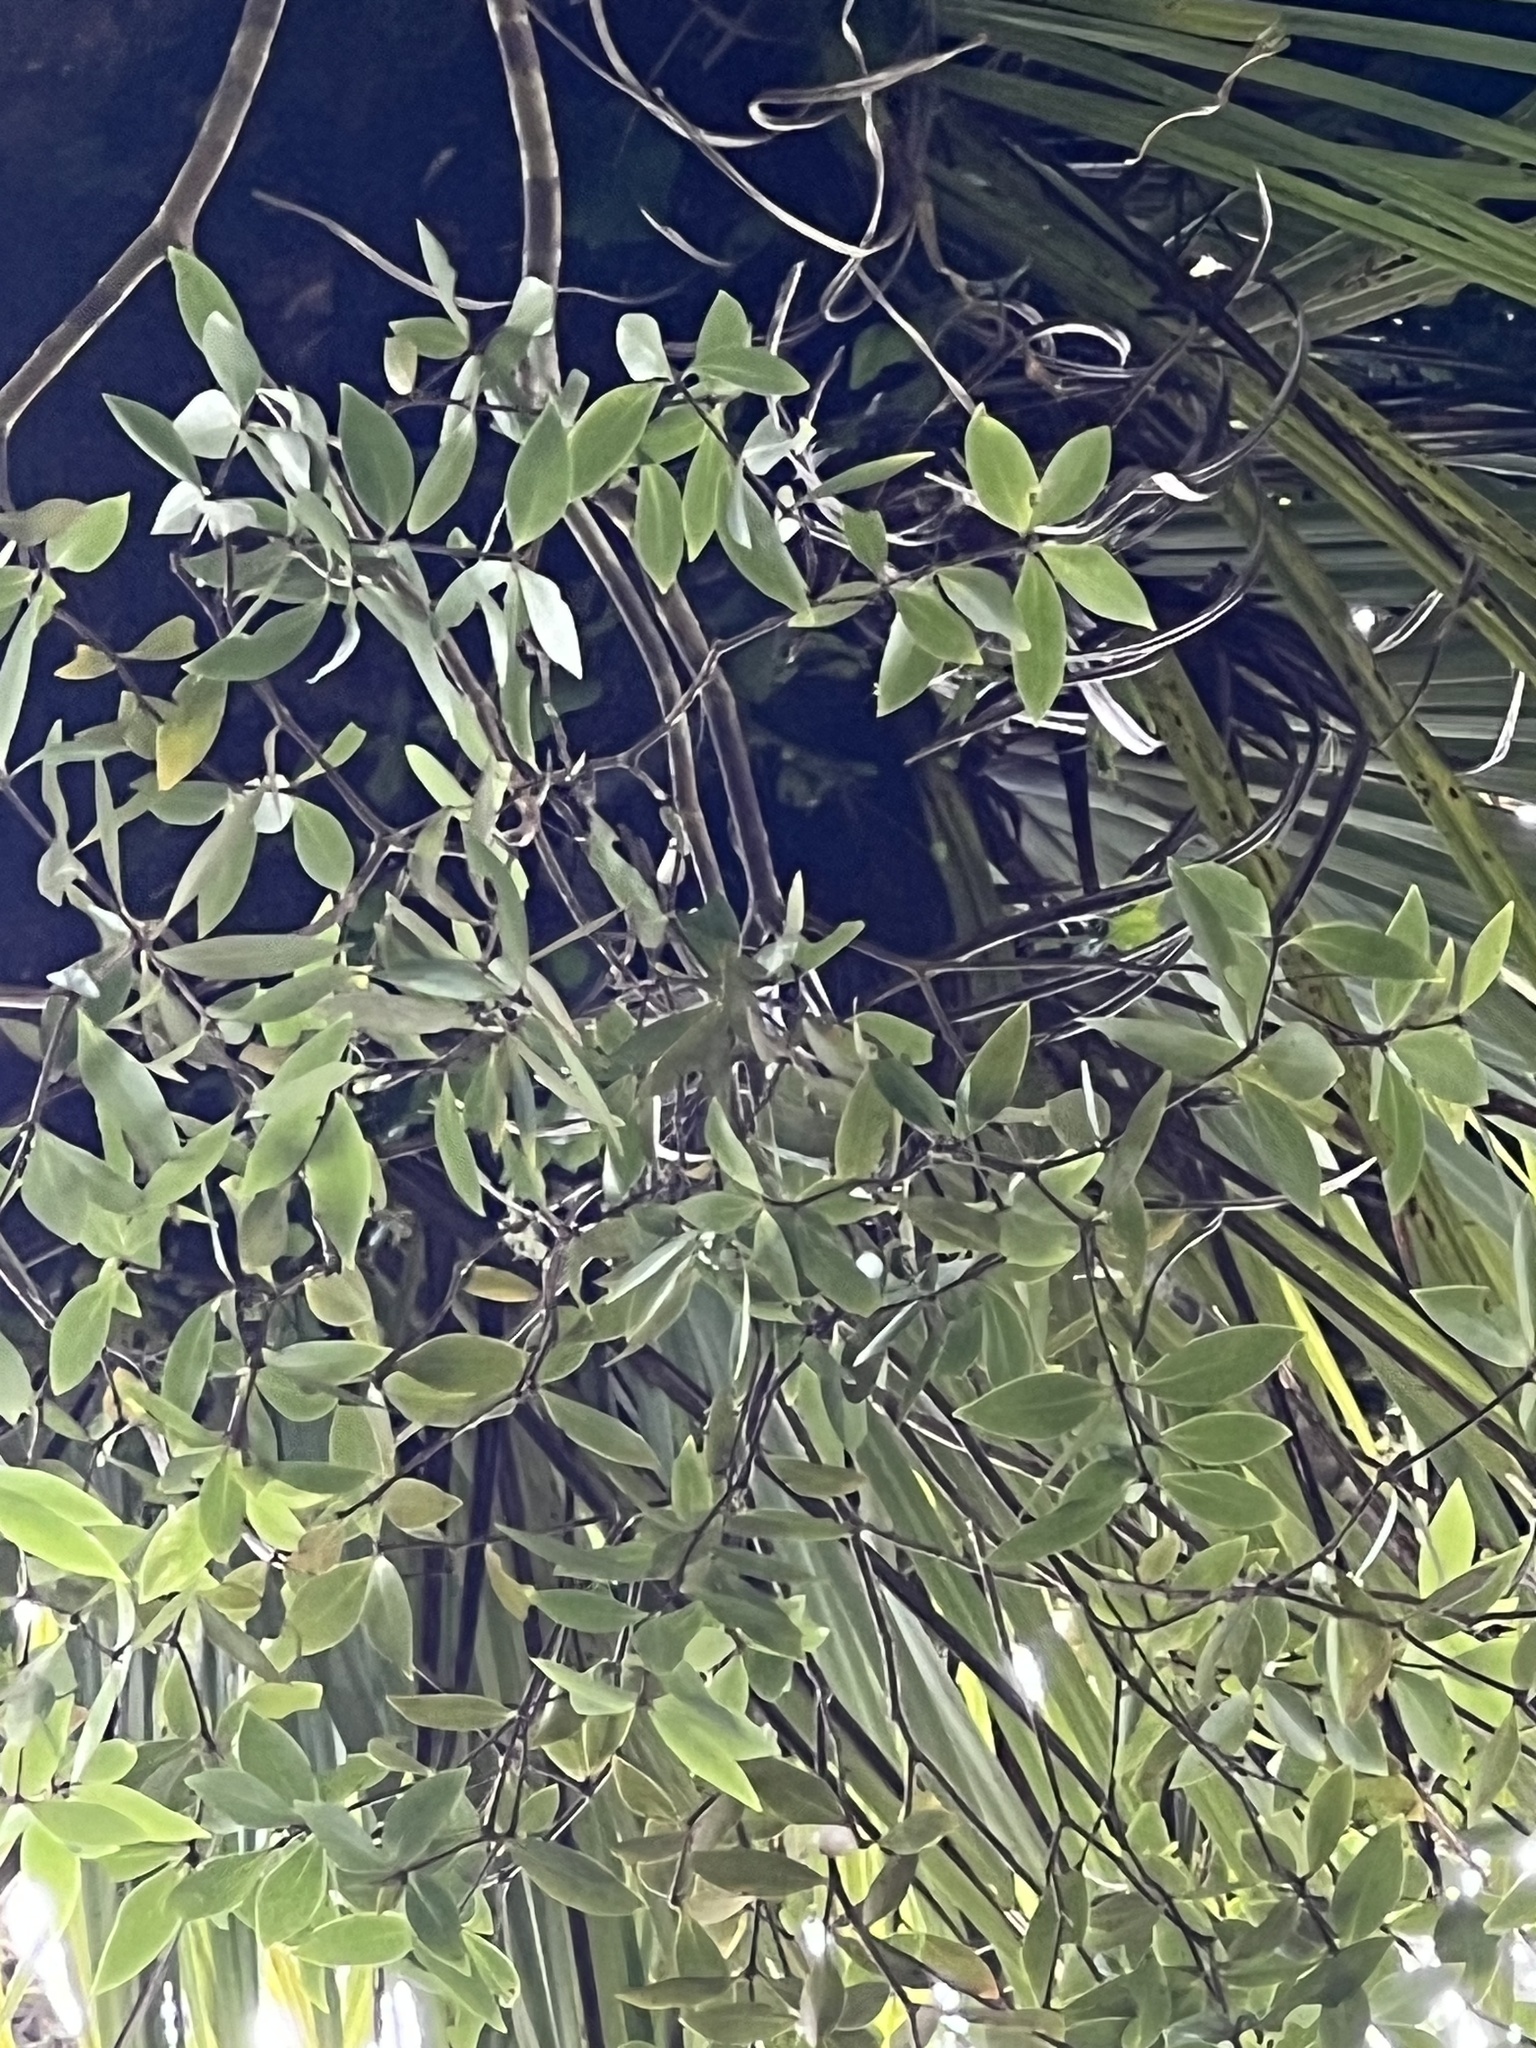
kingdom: Plantae
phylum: Tracheophyta
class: Magnoliopsida
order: Apiales
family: Pittosporaceae
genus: Pittosporum
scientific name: Pittosporum cornifolium
